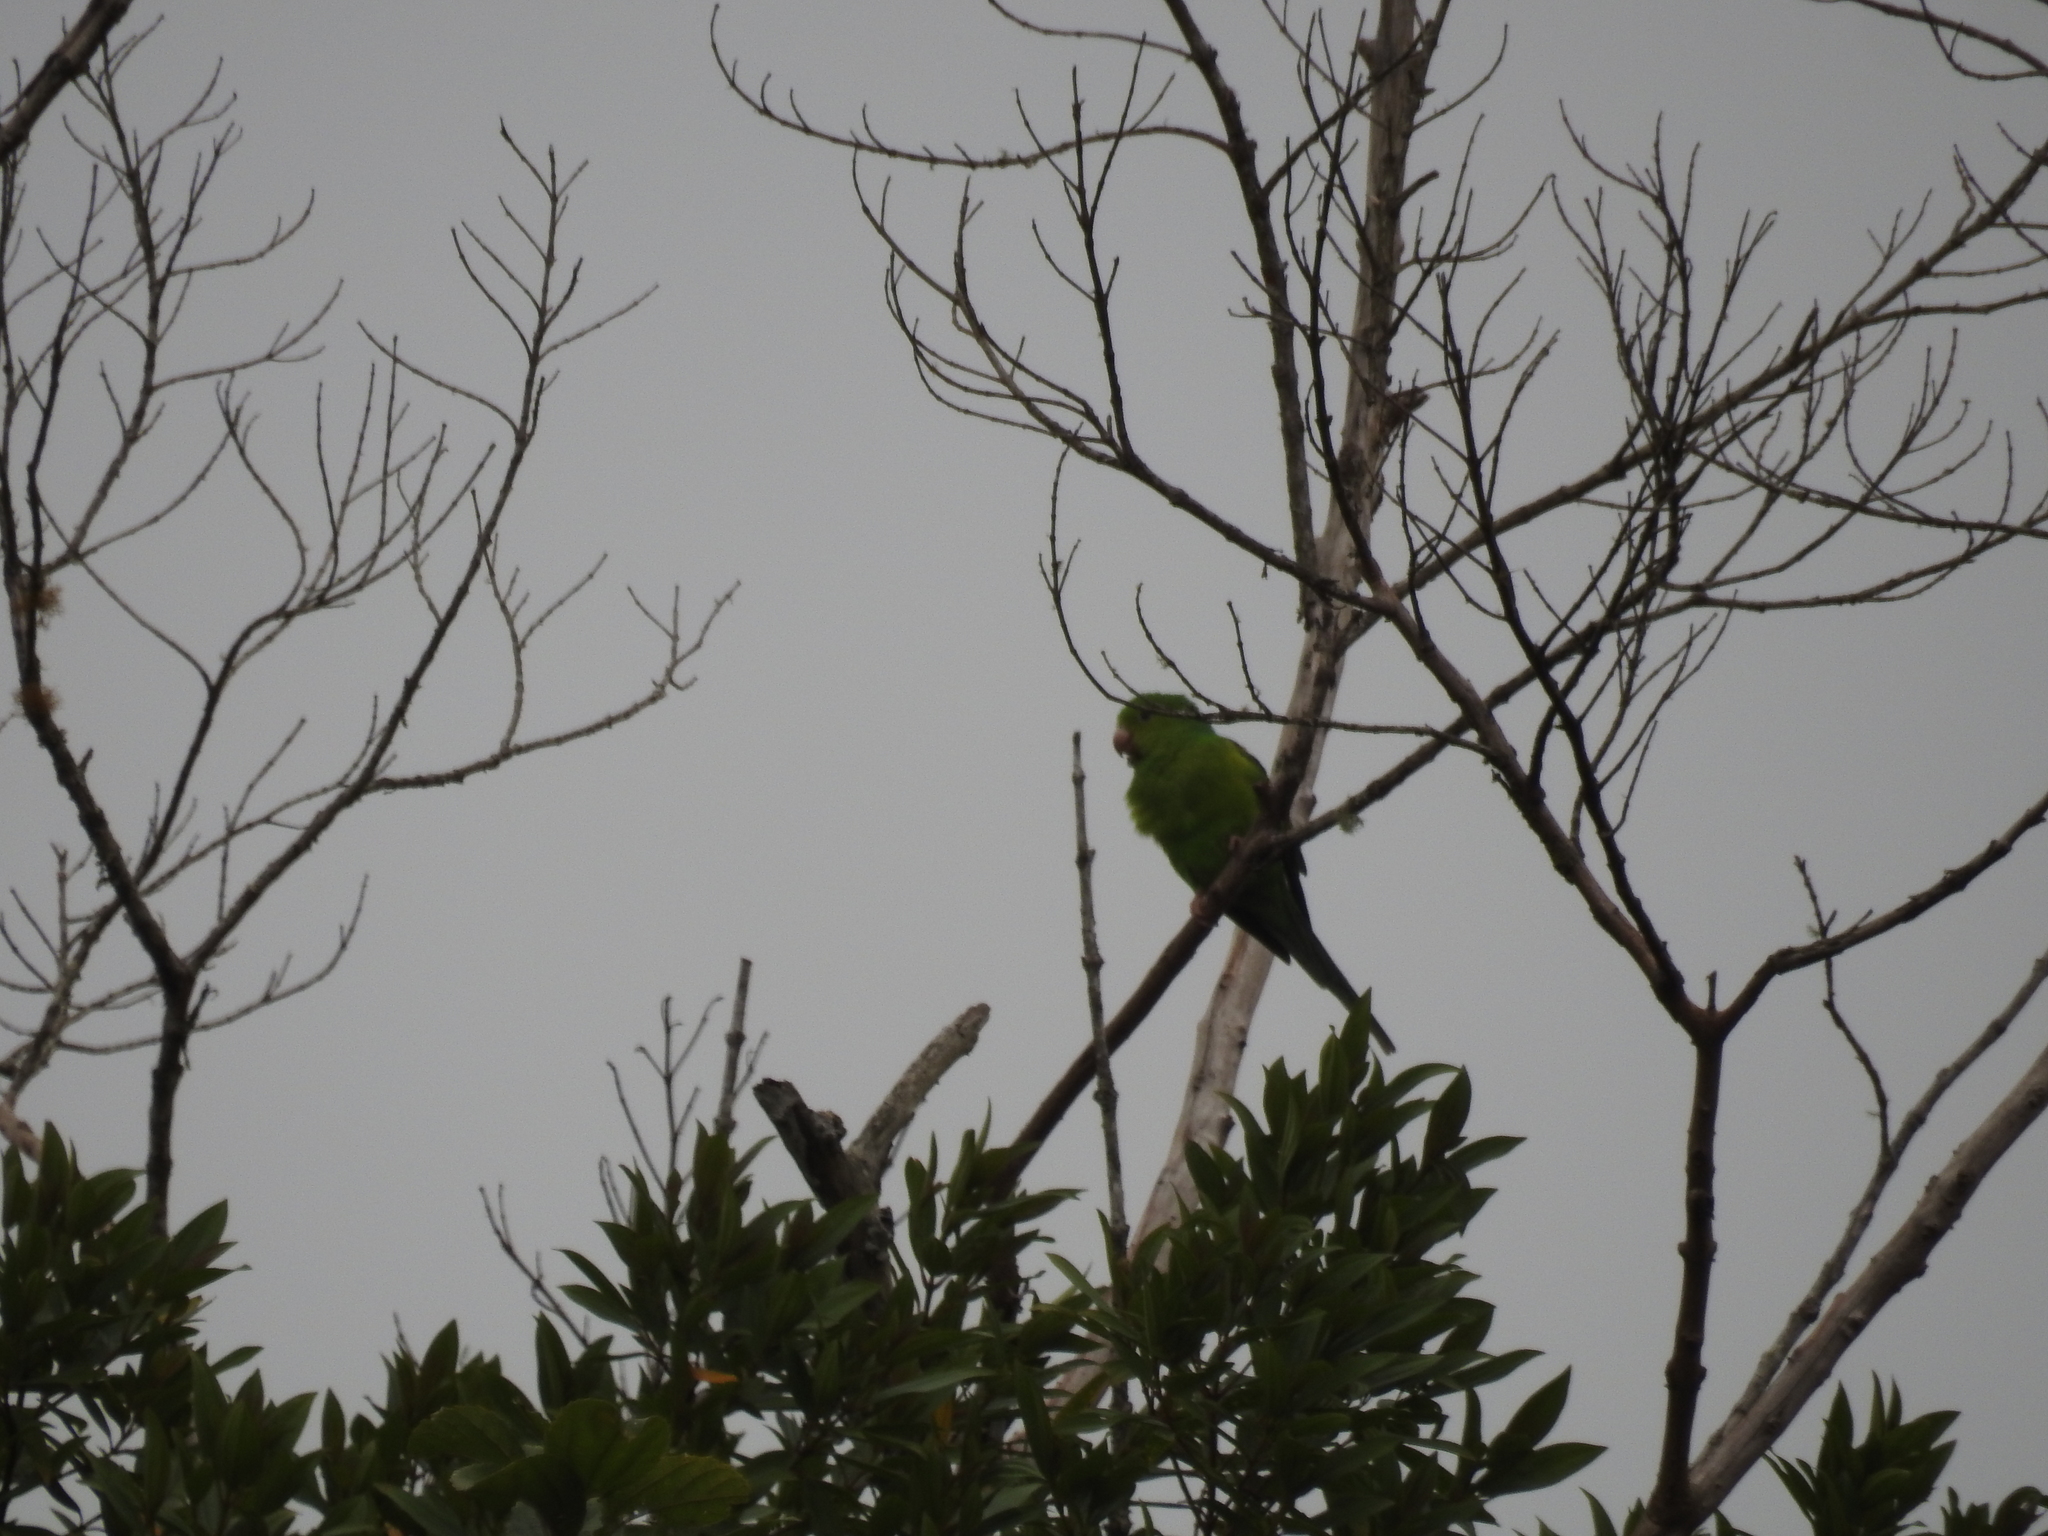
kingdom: Animalia
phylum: Chordata
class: Aves
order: Psittaciformes
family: Psittacidae
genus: Brotogeris
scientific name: Brotogeris tirica
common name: Plain parakeet
